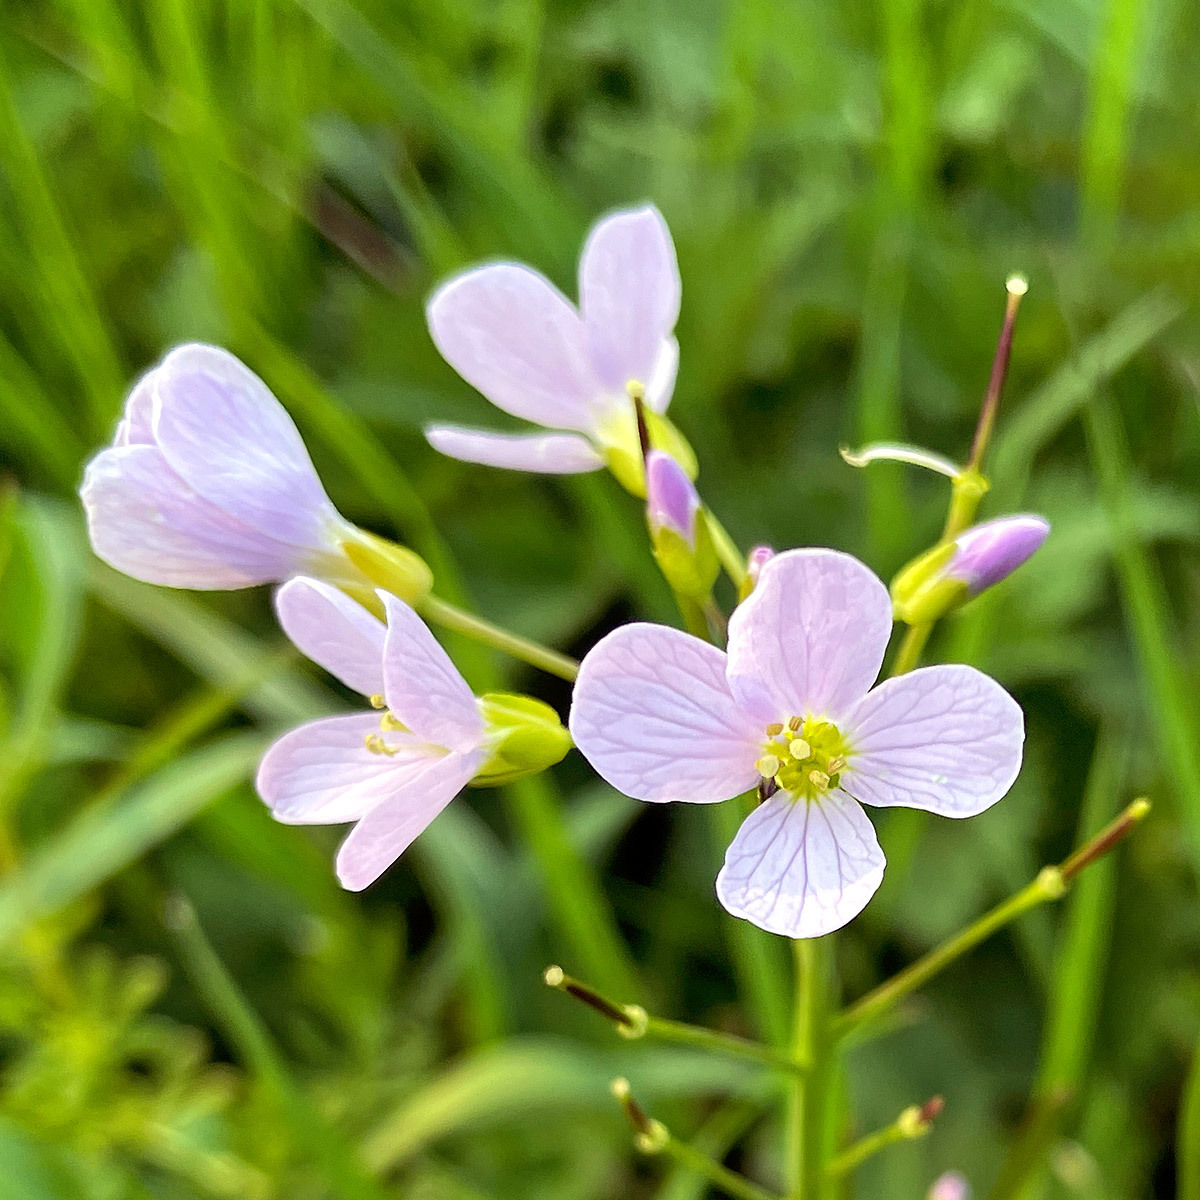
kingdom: Plantae
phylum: Tracheophyta
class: Magnoliopsida
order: Brassicales
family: Brassicaceae
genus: Cardamine
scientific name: Cardamine pratensis
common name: Cuckoo flower
